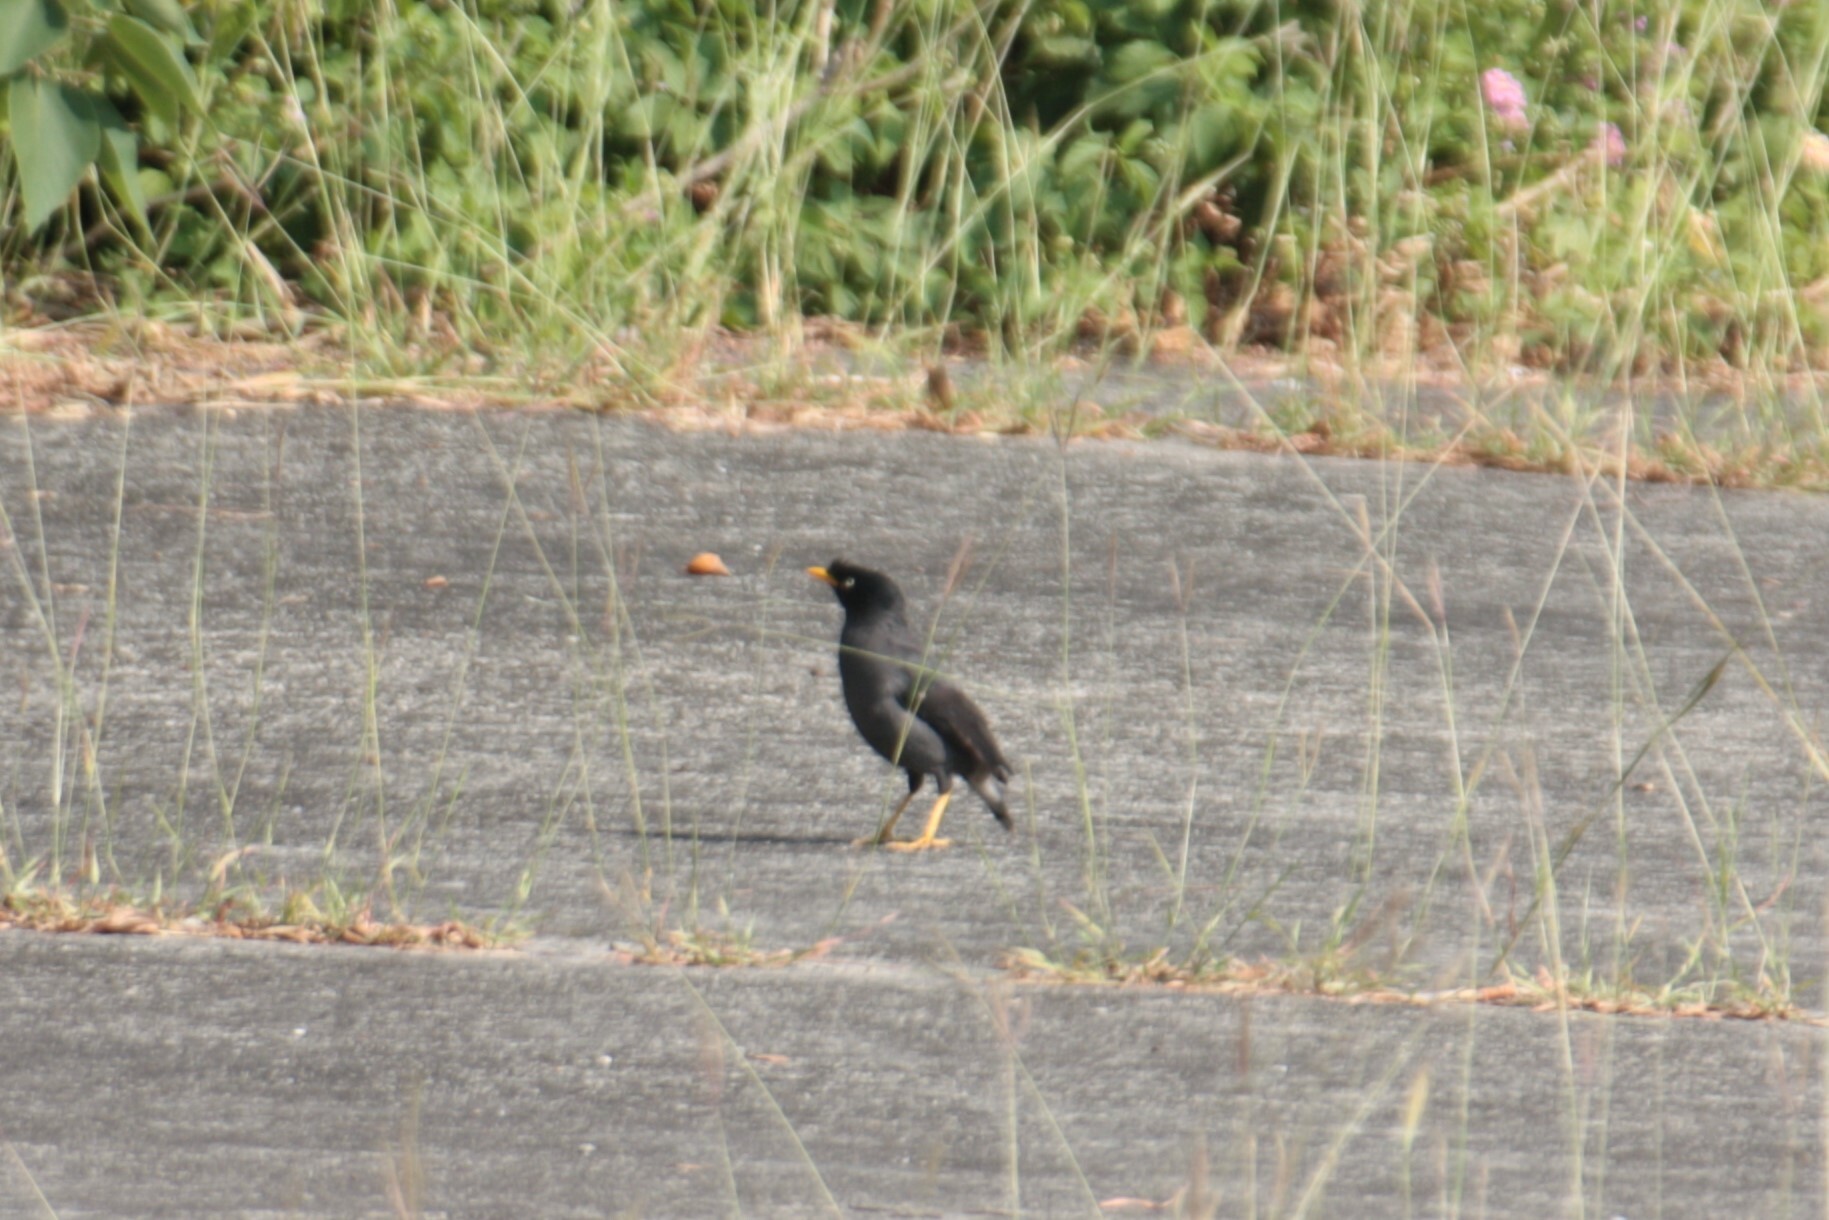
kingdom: Animalia
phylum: Chordata
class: Aves
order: Passeriformes
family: Sturnidae
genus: Acridotheres
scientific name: Acridotheres javanicus
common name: Javan myna
